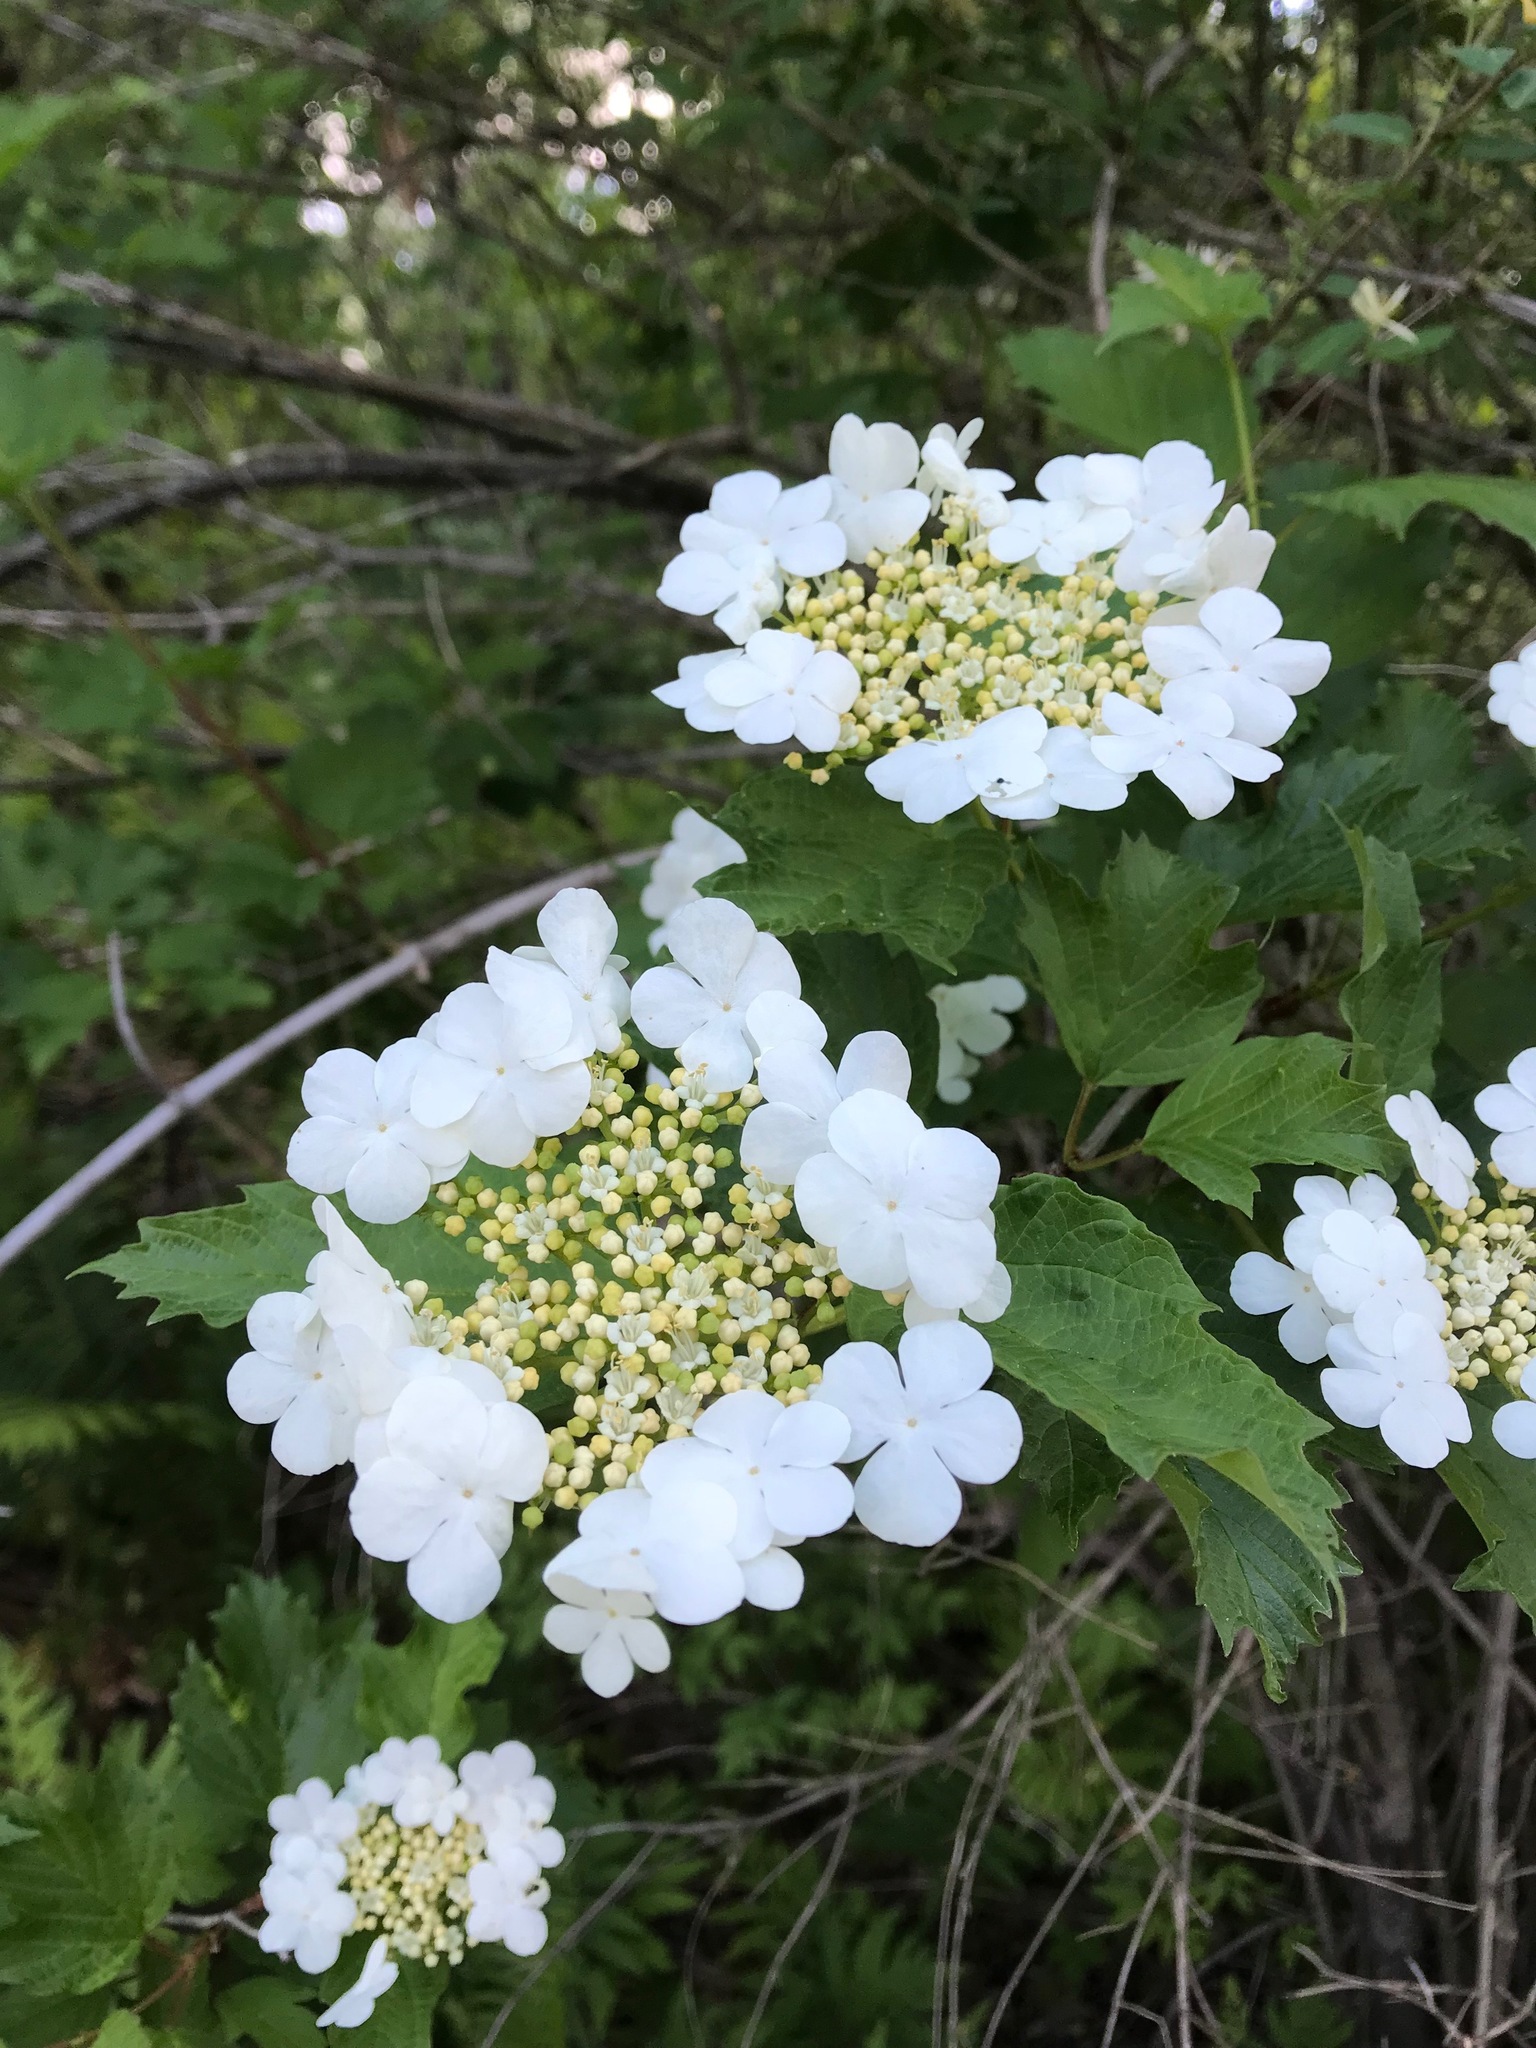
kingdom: Plantae
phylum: Tracheophyta
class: Magnoliopsida
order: Dipsacales
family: Viburnaceae
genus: Viburnum
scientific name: Viburnum opulus
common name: Guelder-rose
